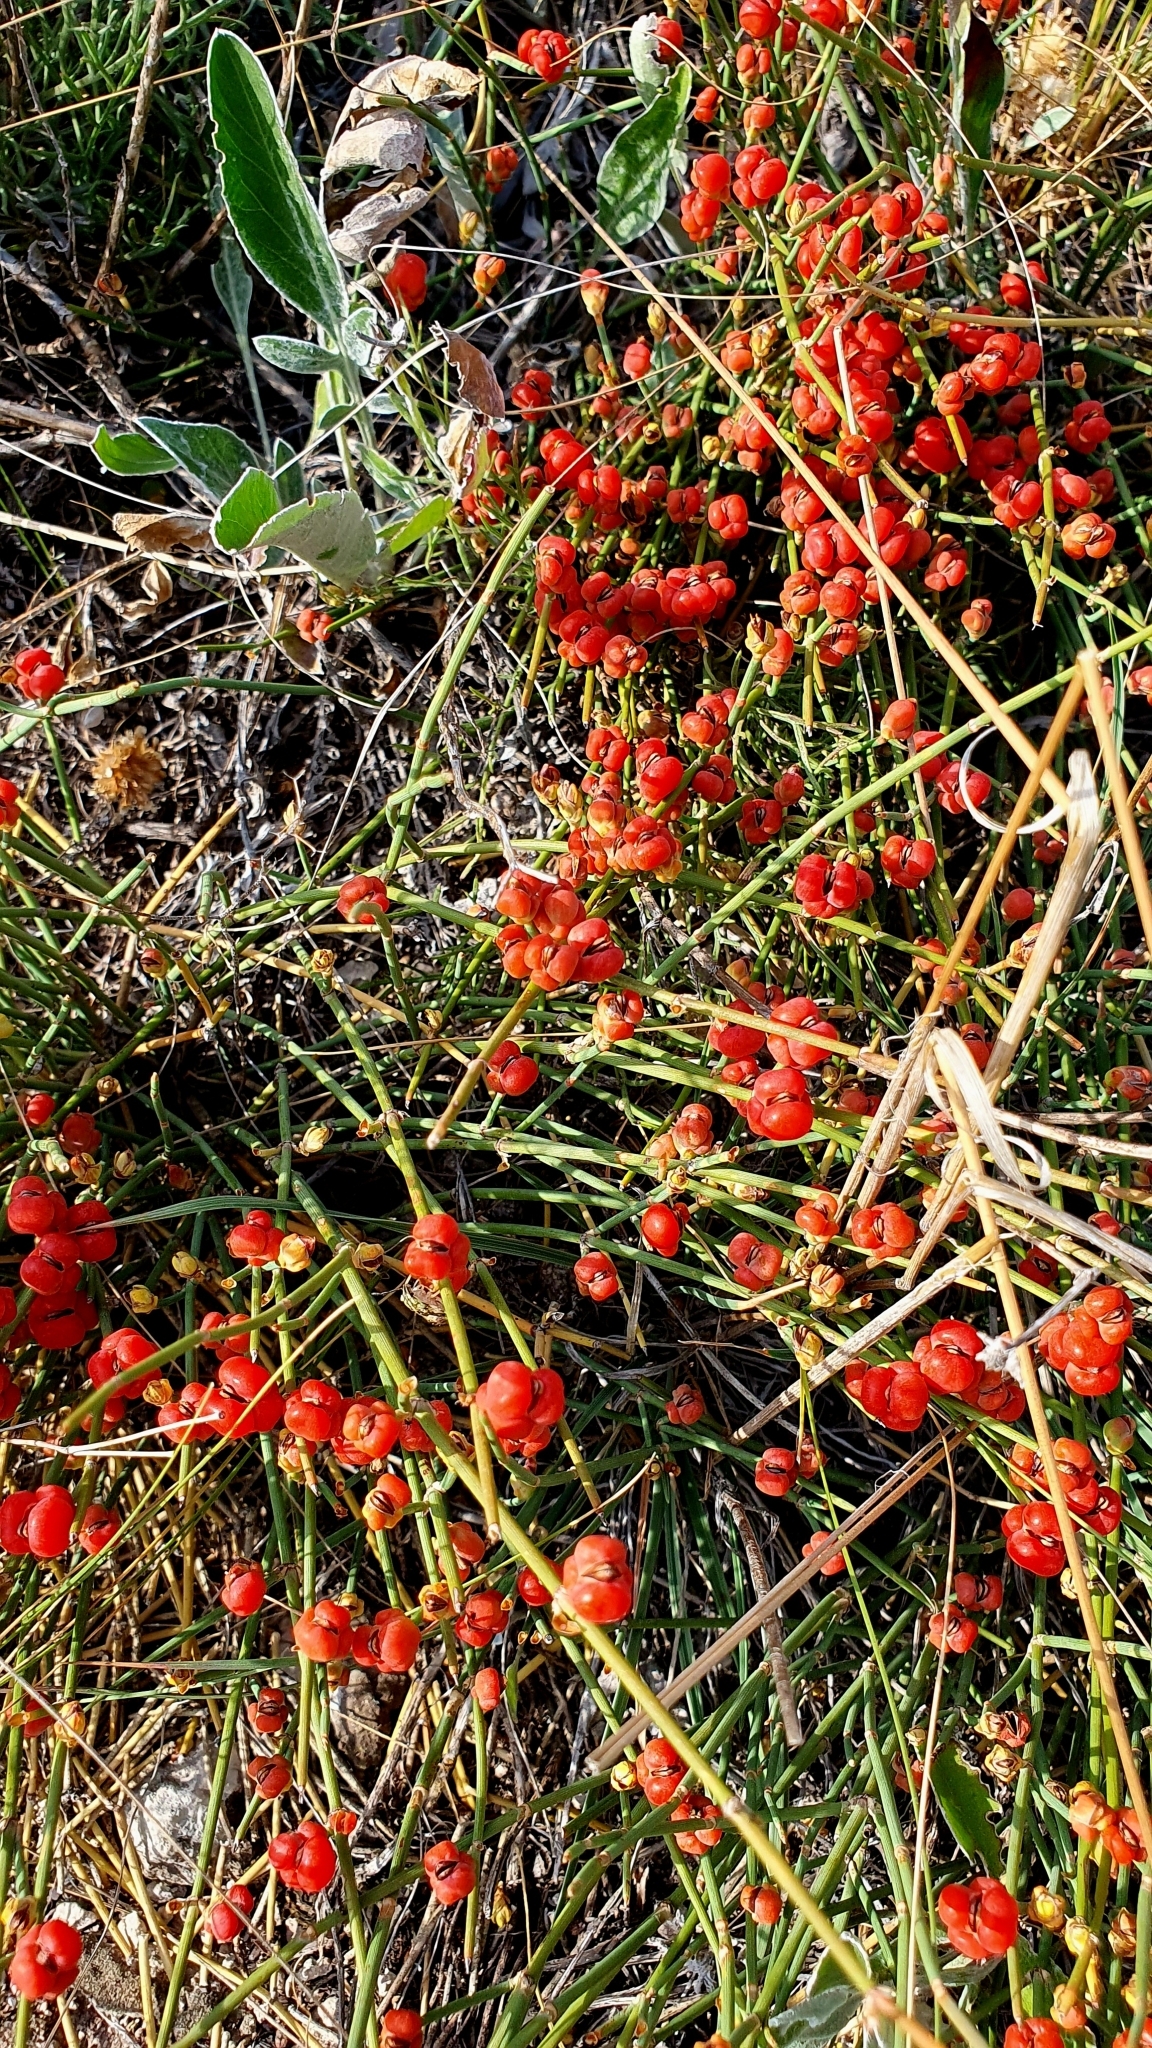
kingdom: Plantae
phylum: Tracheophyta
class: Gnetopsida
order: Ephedrales
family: Ephedraceae
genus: Ephedra
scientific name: Ephedra distachya
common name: Sea grape
